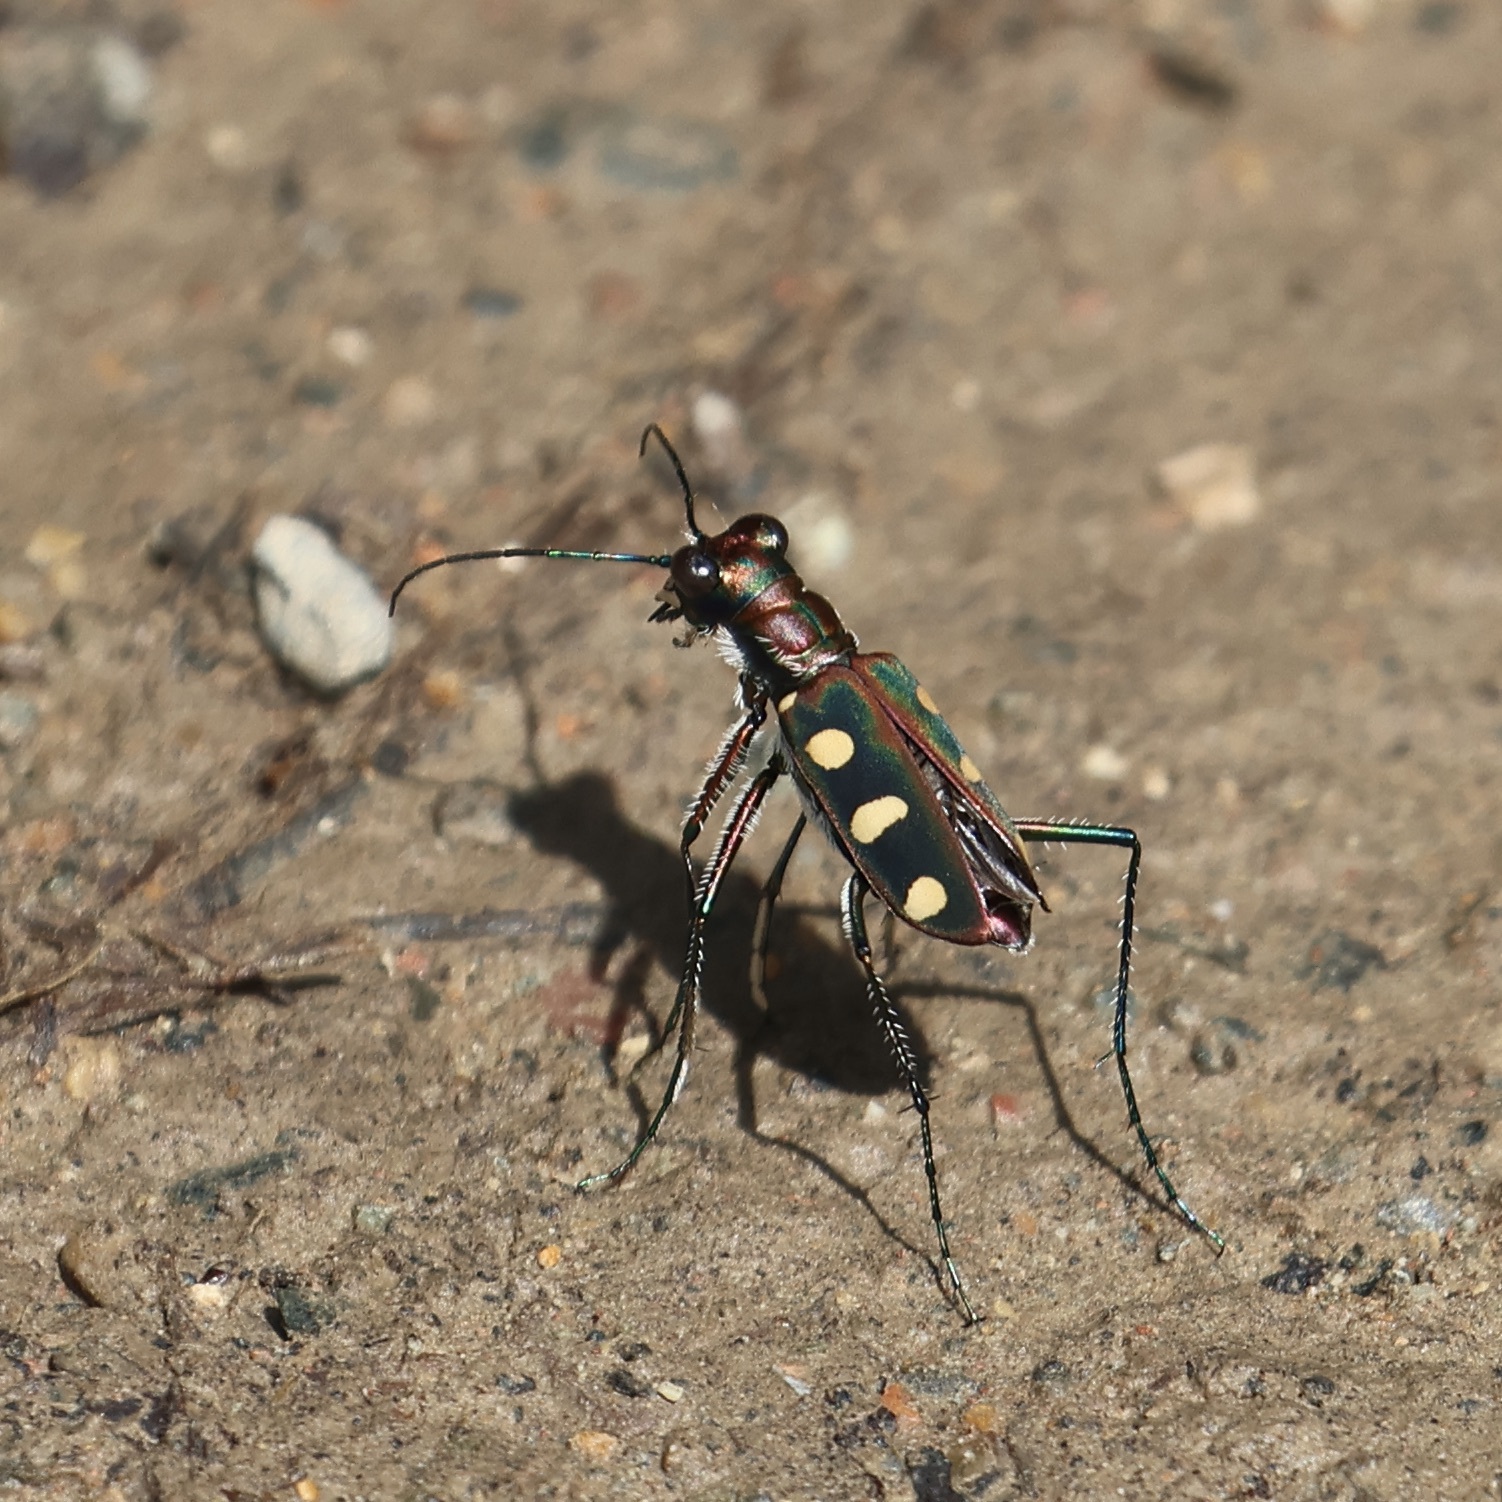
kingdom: Animalia
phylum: Arthropoda
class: Insecta
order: Coleoptera
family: Carabidae
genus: Cicindela
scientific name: Cicindela aurulenta
